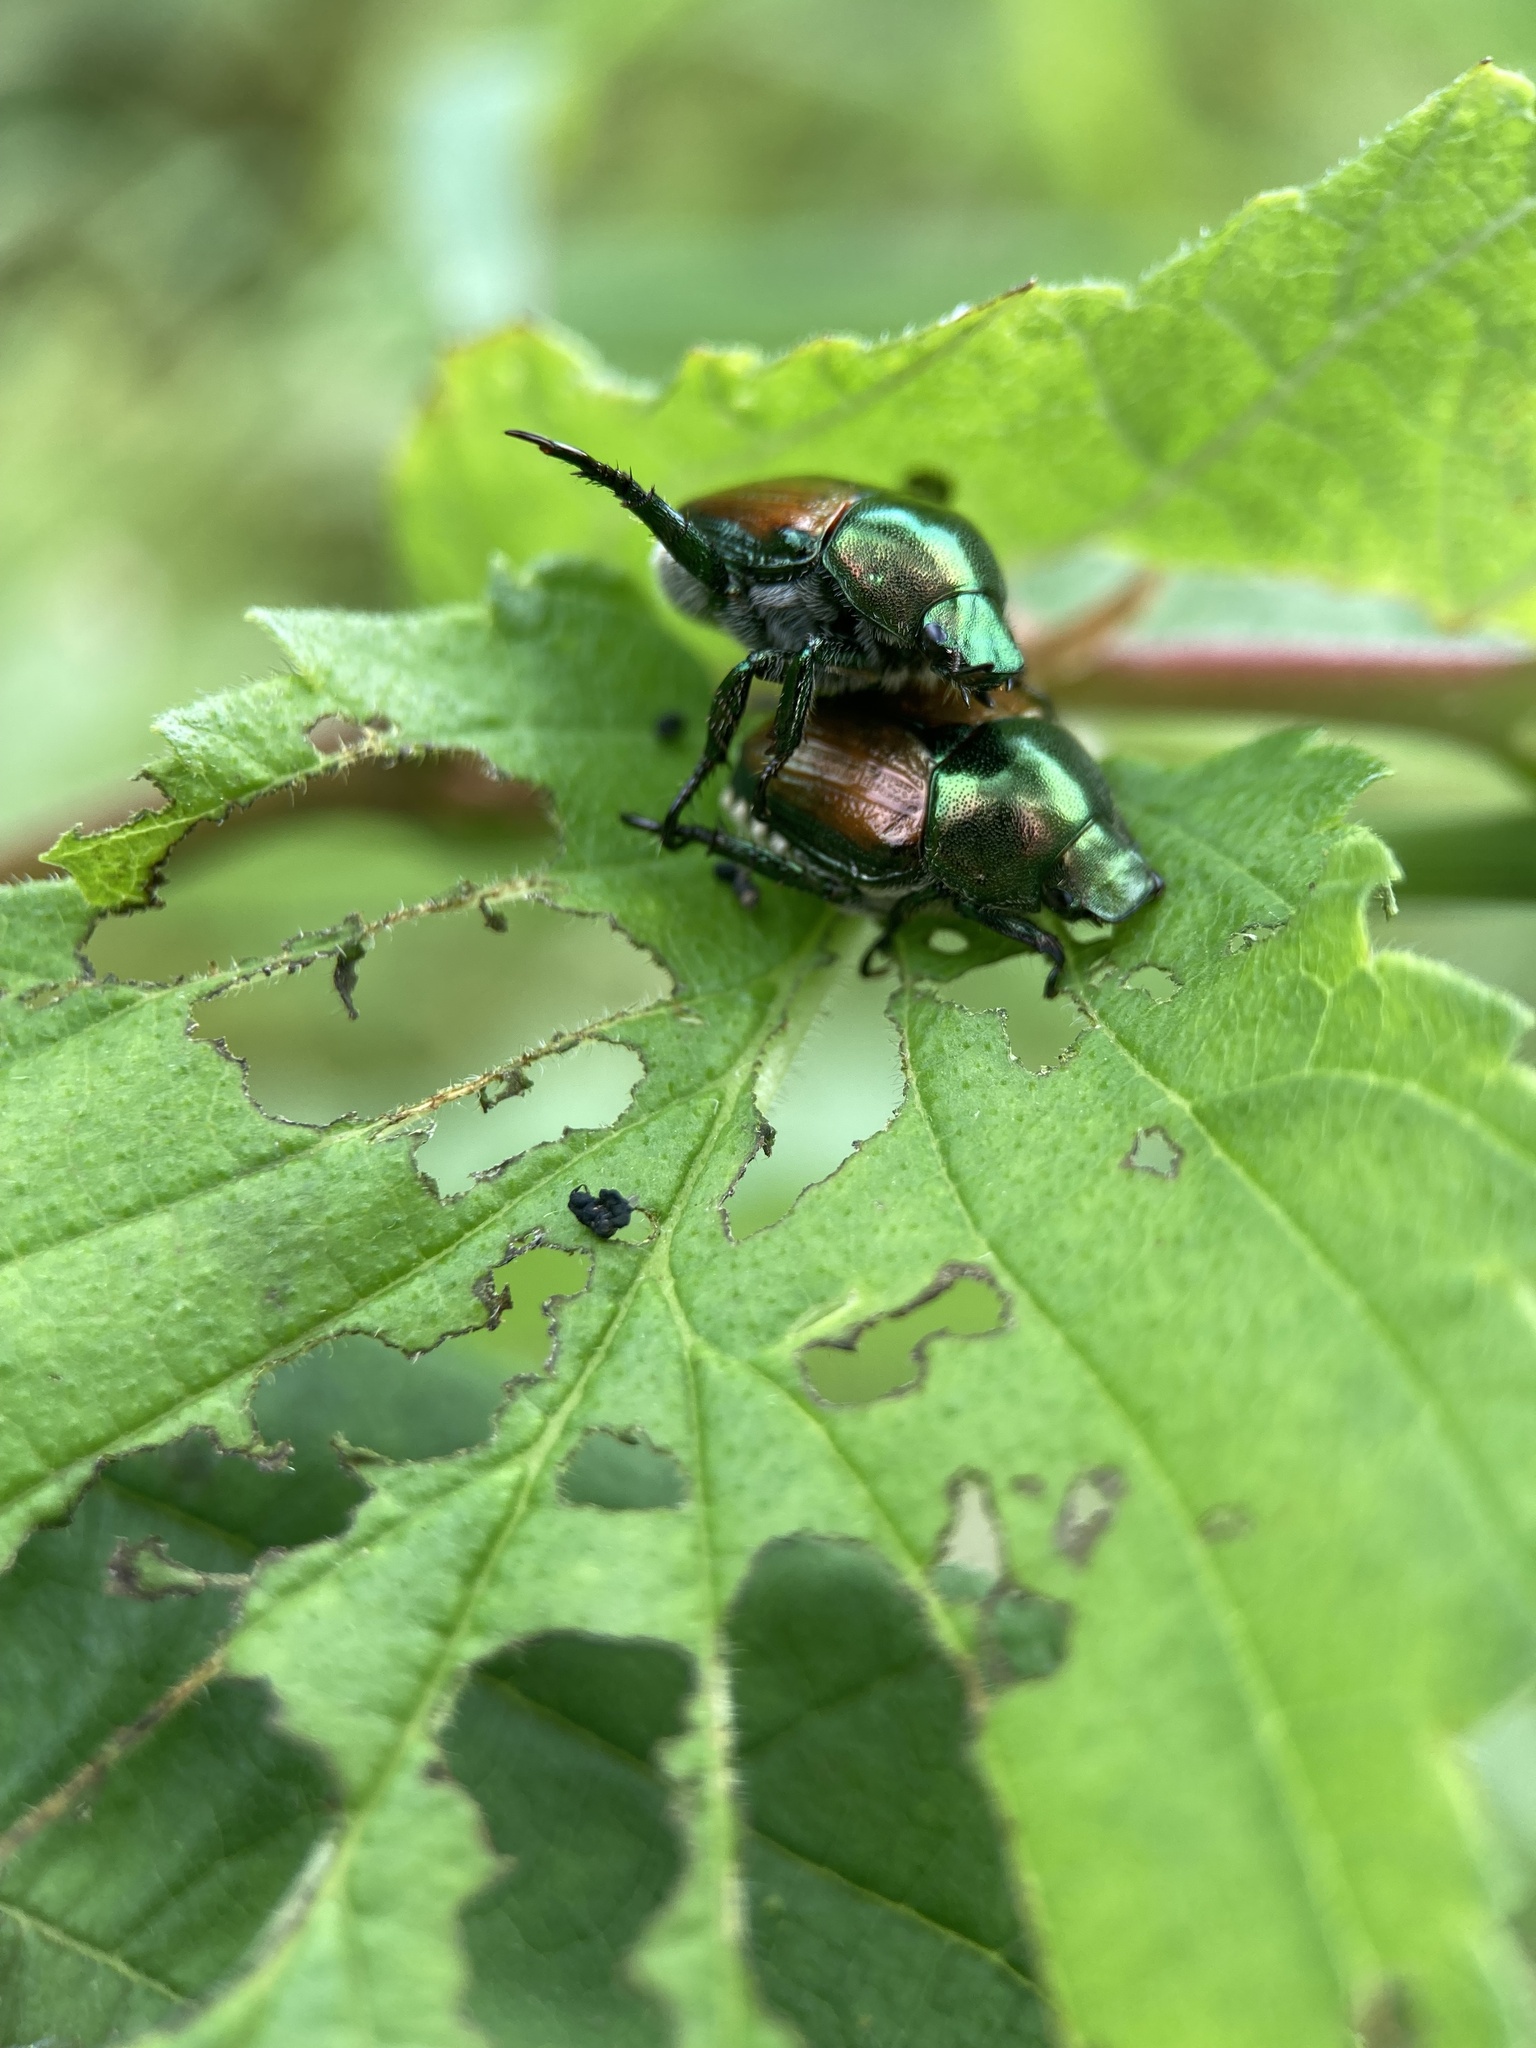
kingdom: Animalia
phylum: Arthropoda
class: Insecta
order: Coleoptera
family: Scarabaeidae
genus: Popillia
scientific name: Popillia japonica
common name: Japanese beetle
